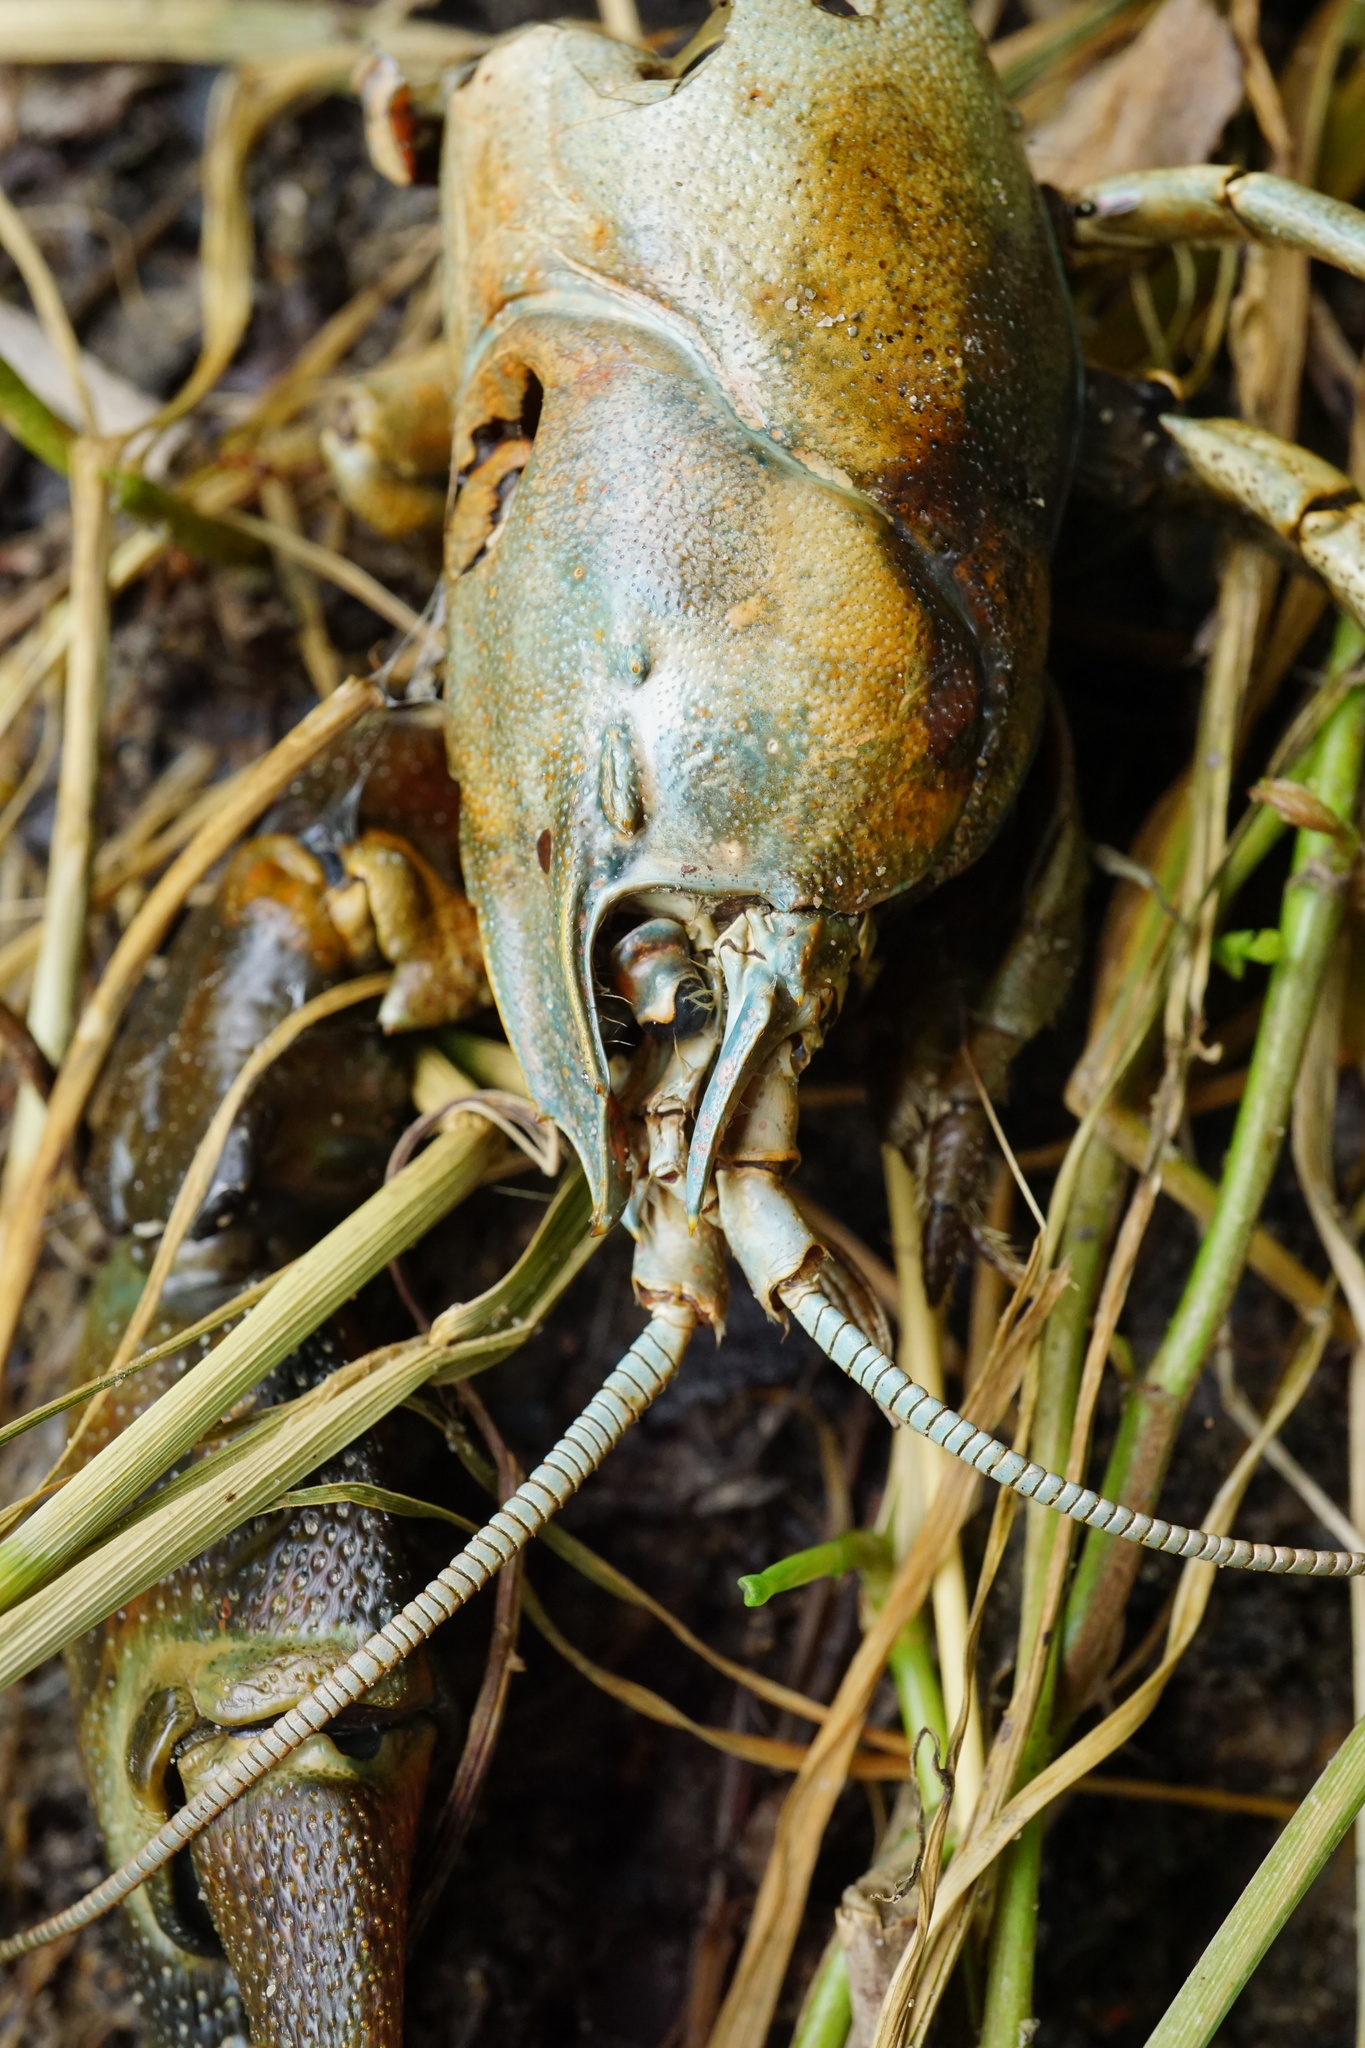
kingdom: Animalia
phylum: Arthropoda
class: Malacostraca
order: Decapoda
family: Astacidae
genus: Pacifastacus
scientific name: Pacifastacus leniusculus
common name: Signal crayfish
